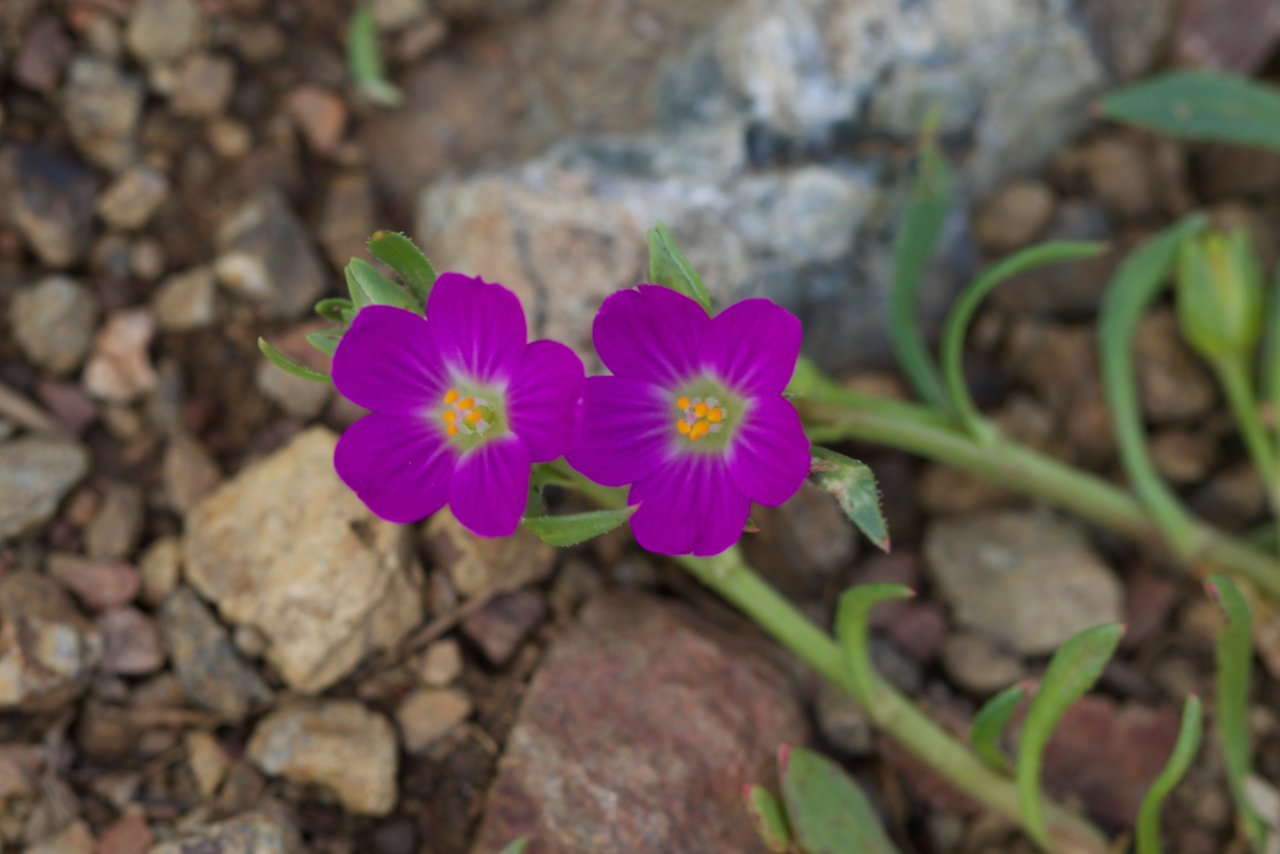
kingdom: Plantae
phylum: Tracheophyta
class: Magnoliopsida
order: Caryophyllales
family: Montiaceae
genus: Calandrinia
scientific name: Calandrinia menziesii
